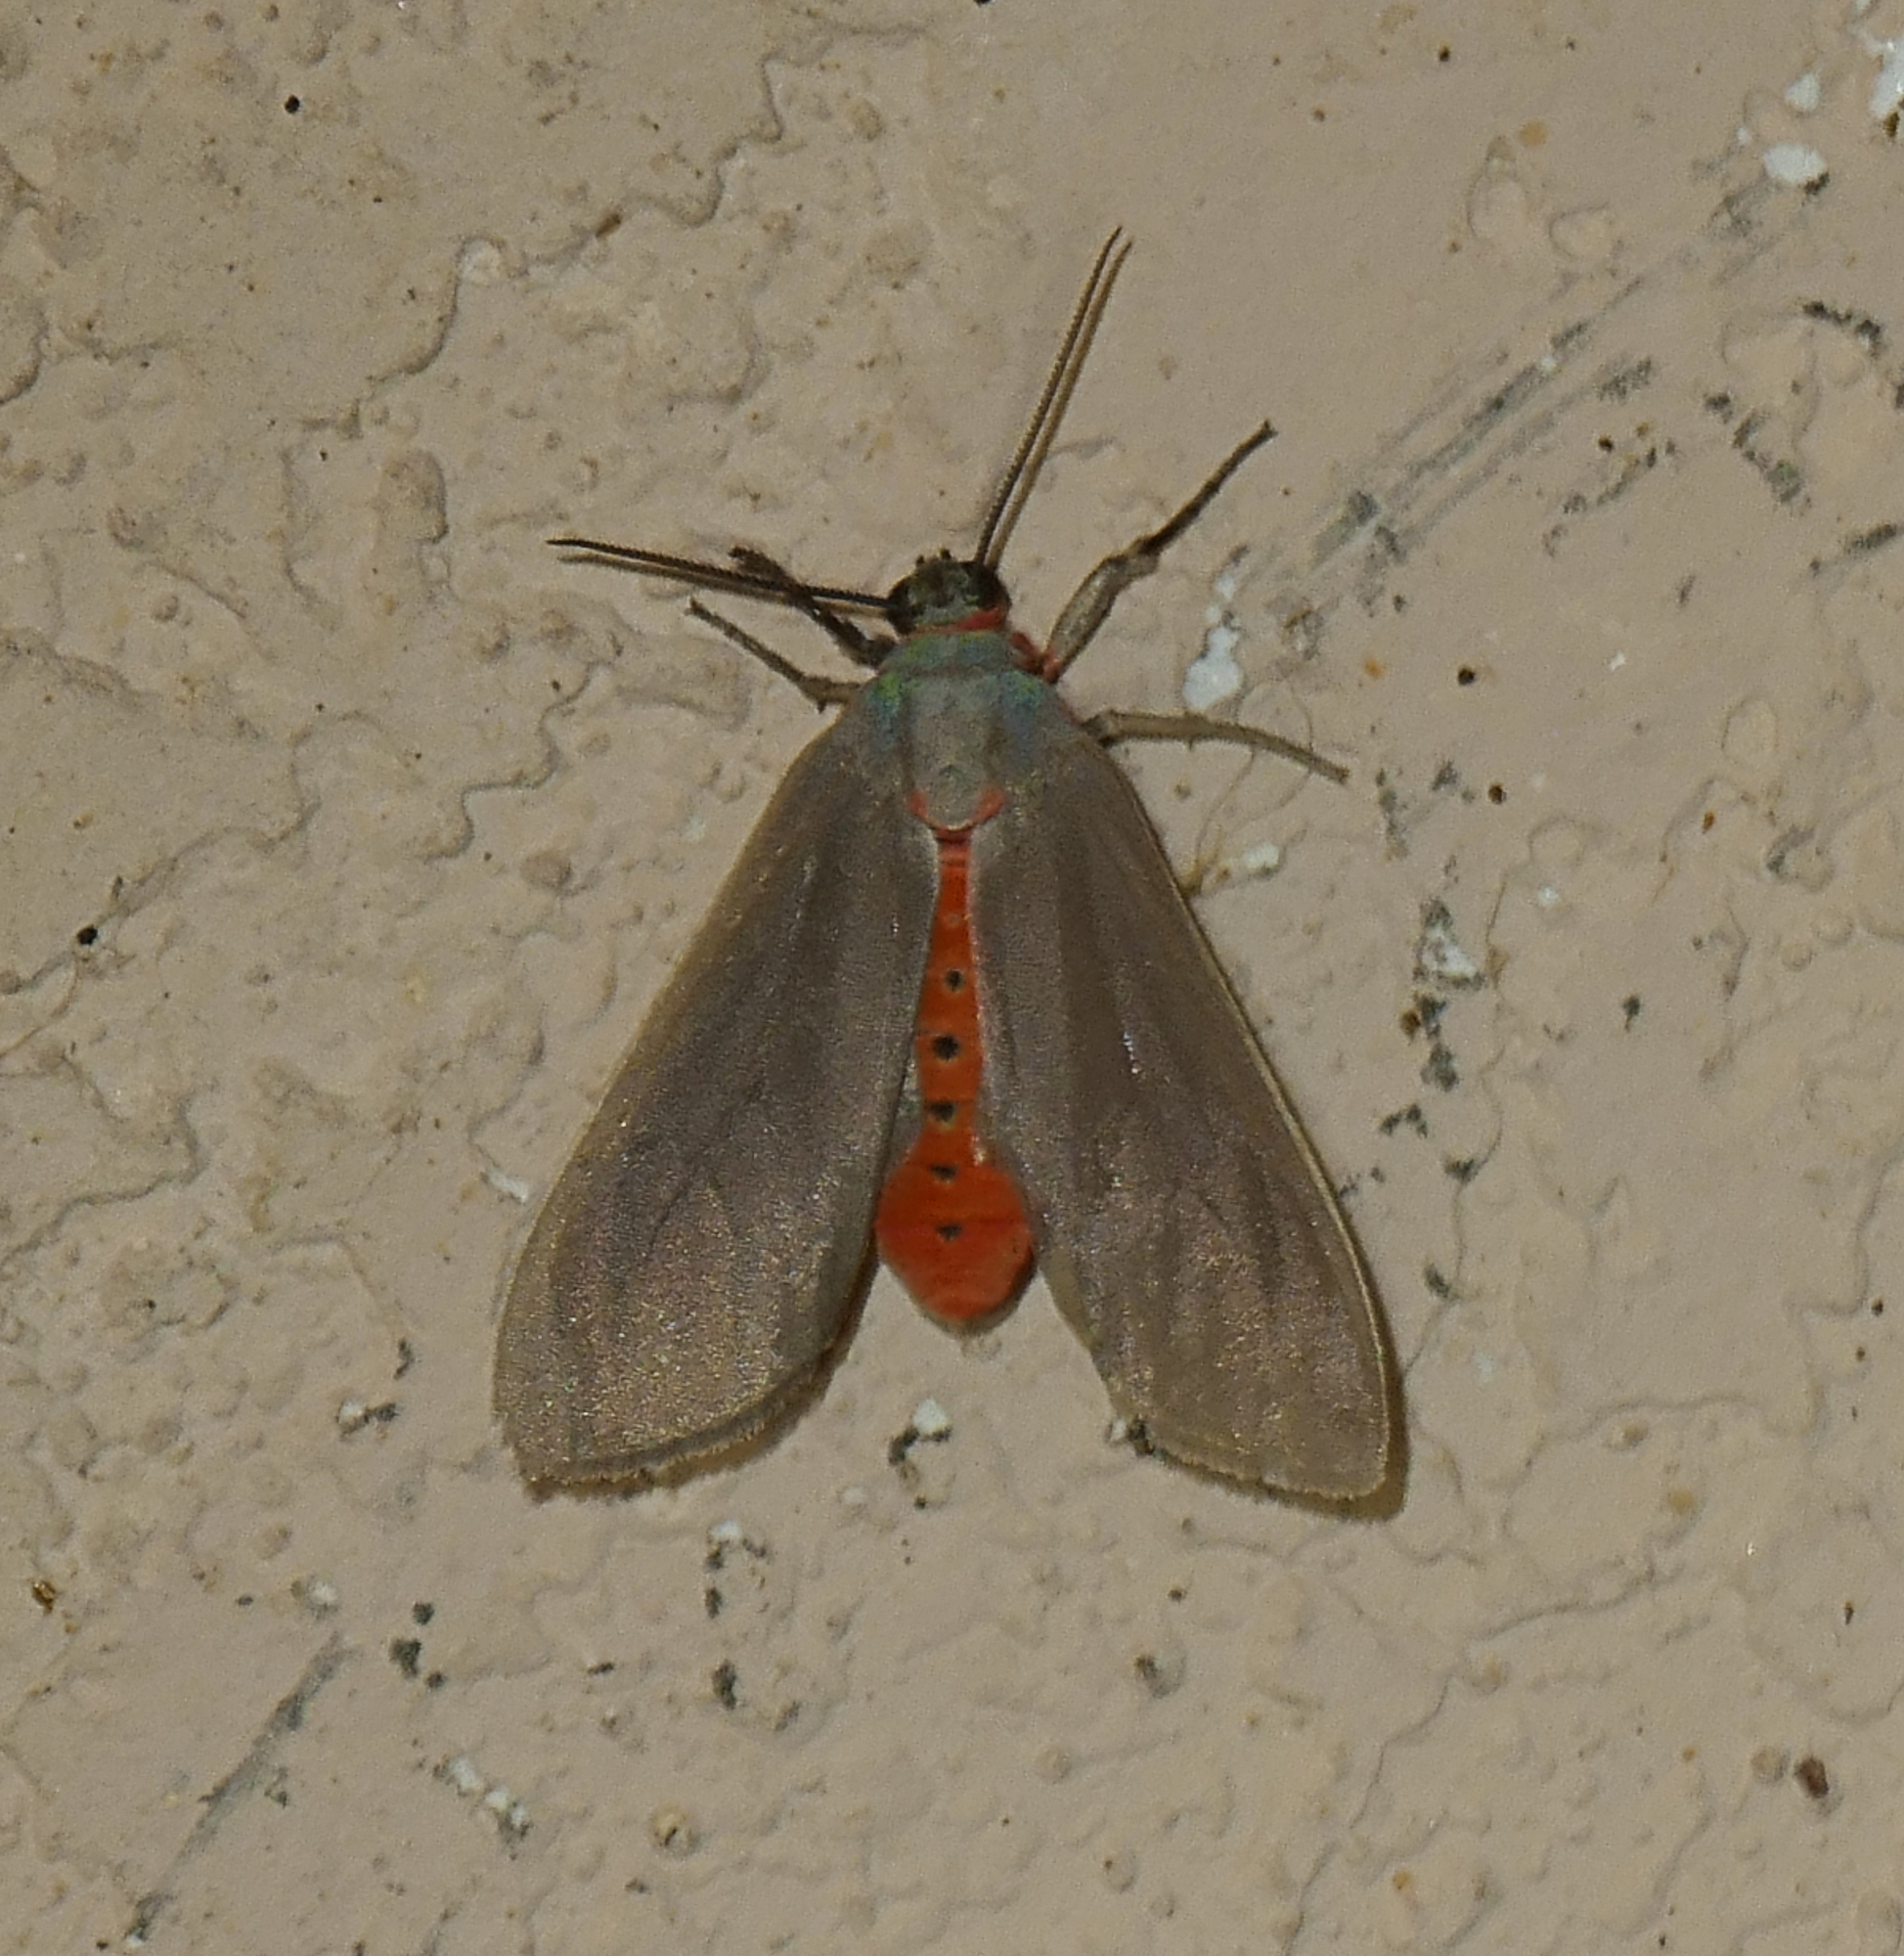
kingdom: Animalia
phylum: Arthropoda
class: Insecta
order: Lepidoptera
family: Erebidae
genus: Pygarctia
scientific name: Pygarctia murina
